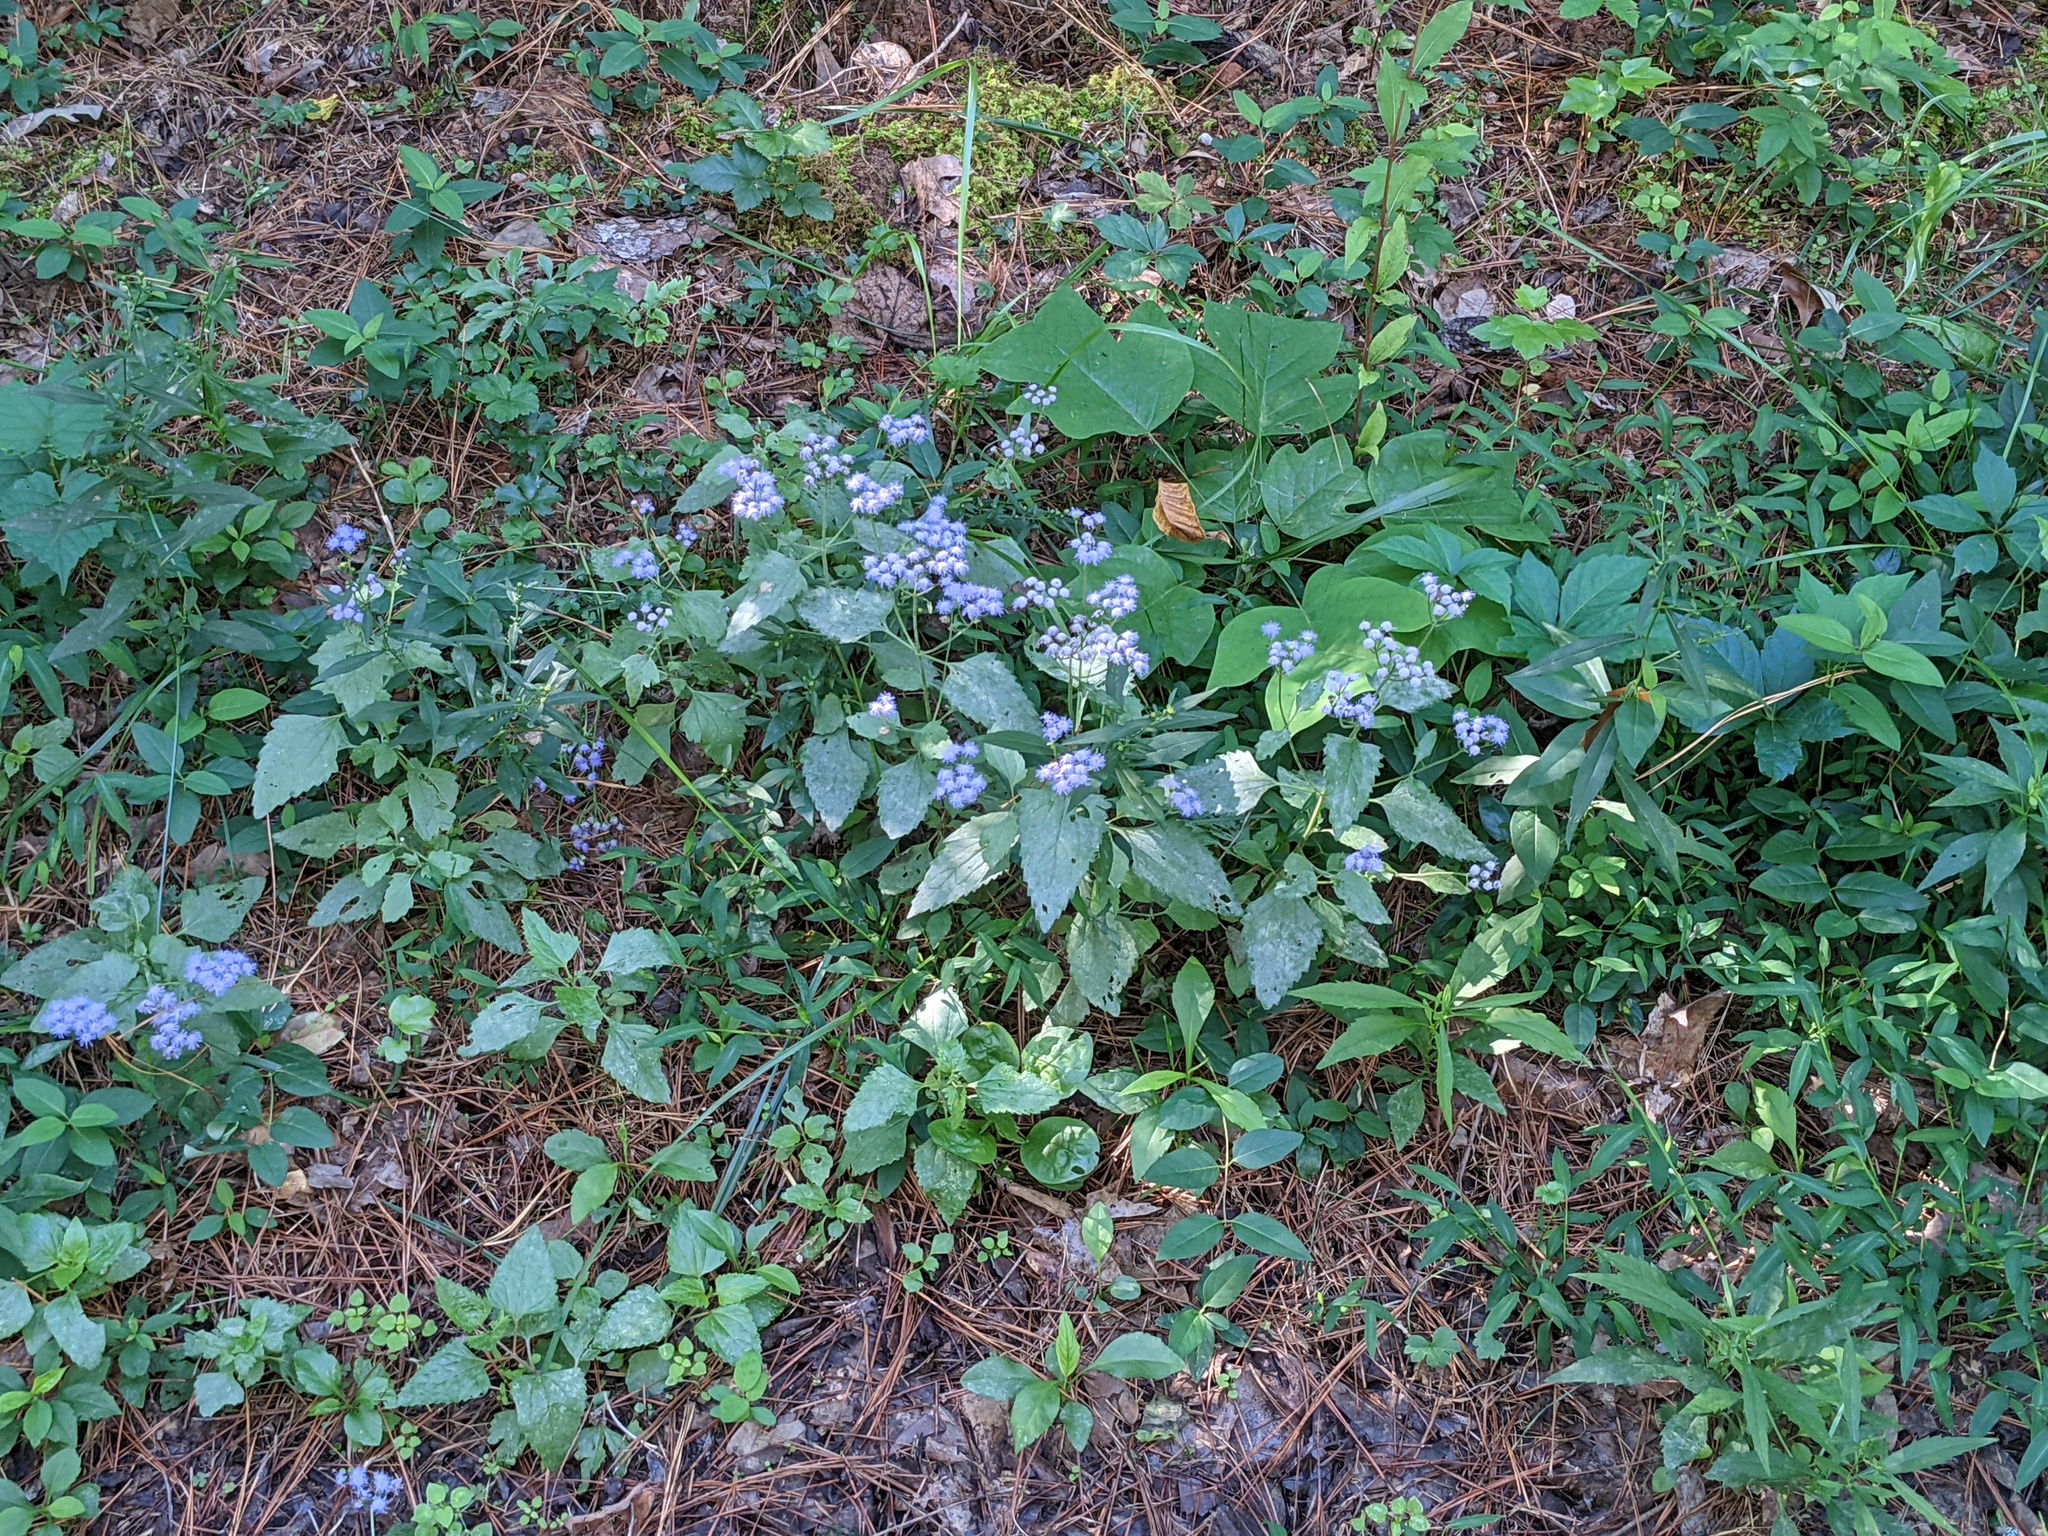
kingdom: Plantae
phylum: Tracheophyta
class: Magnoliopsida
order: Asterales
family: Asteraceae
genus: Conoclinium
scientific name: Conoclinium coelestinum
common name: Blue mistflower
